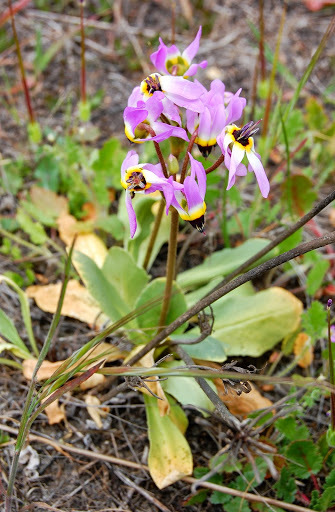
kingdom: Plantae
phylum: Tracheophyta
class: Magnoliopsida
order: Ericales
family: Primulaceae
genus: Dodecatheon
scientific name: Dodecatheon clevelandii
